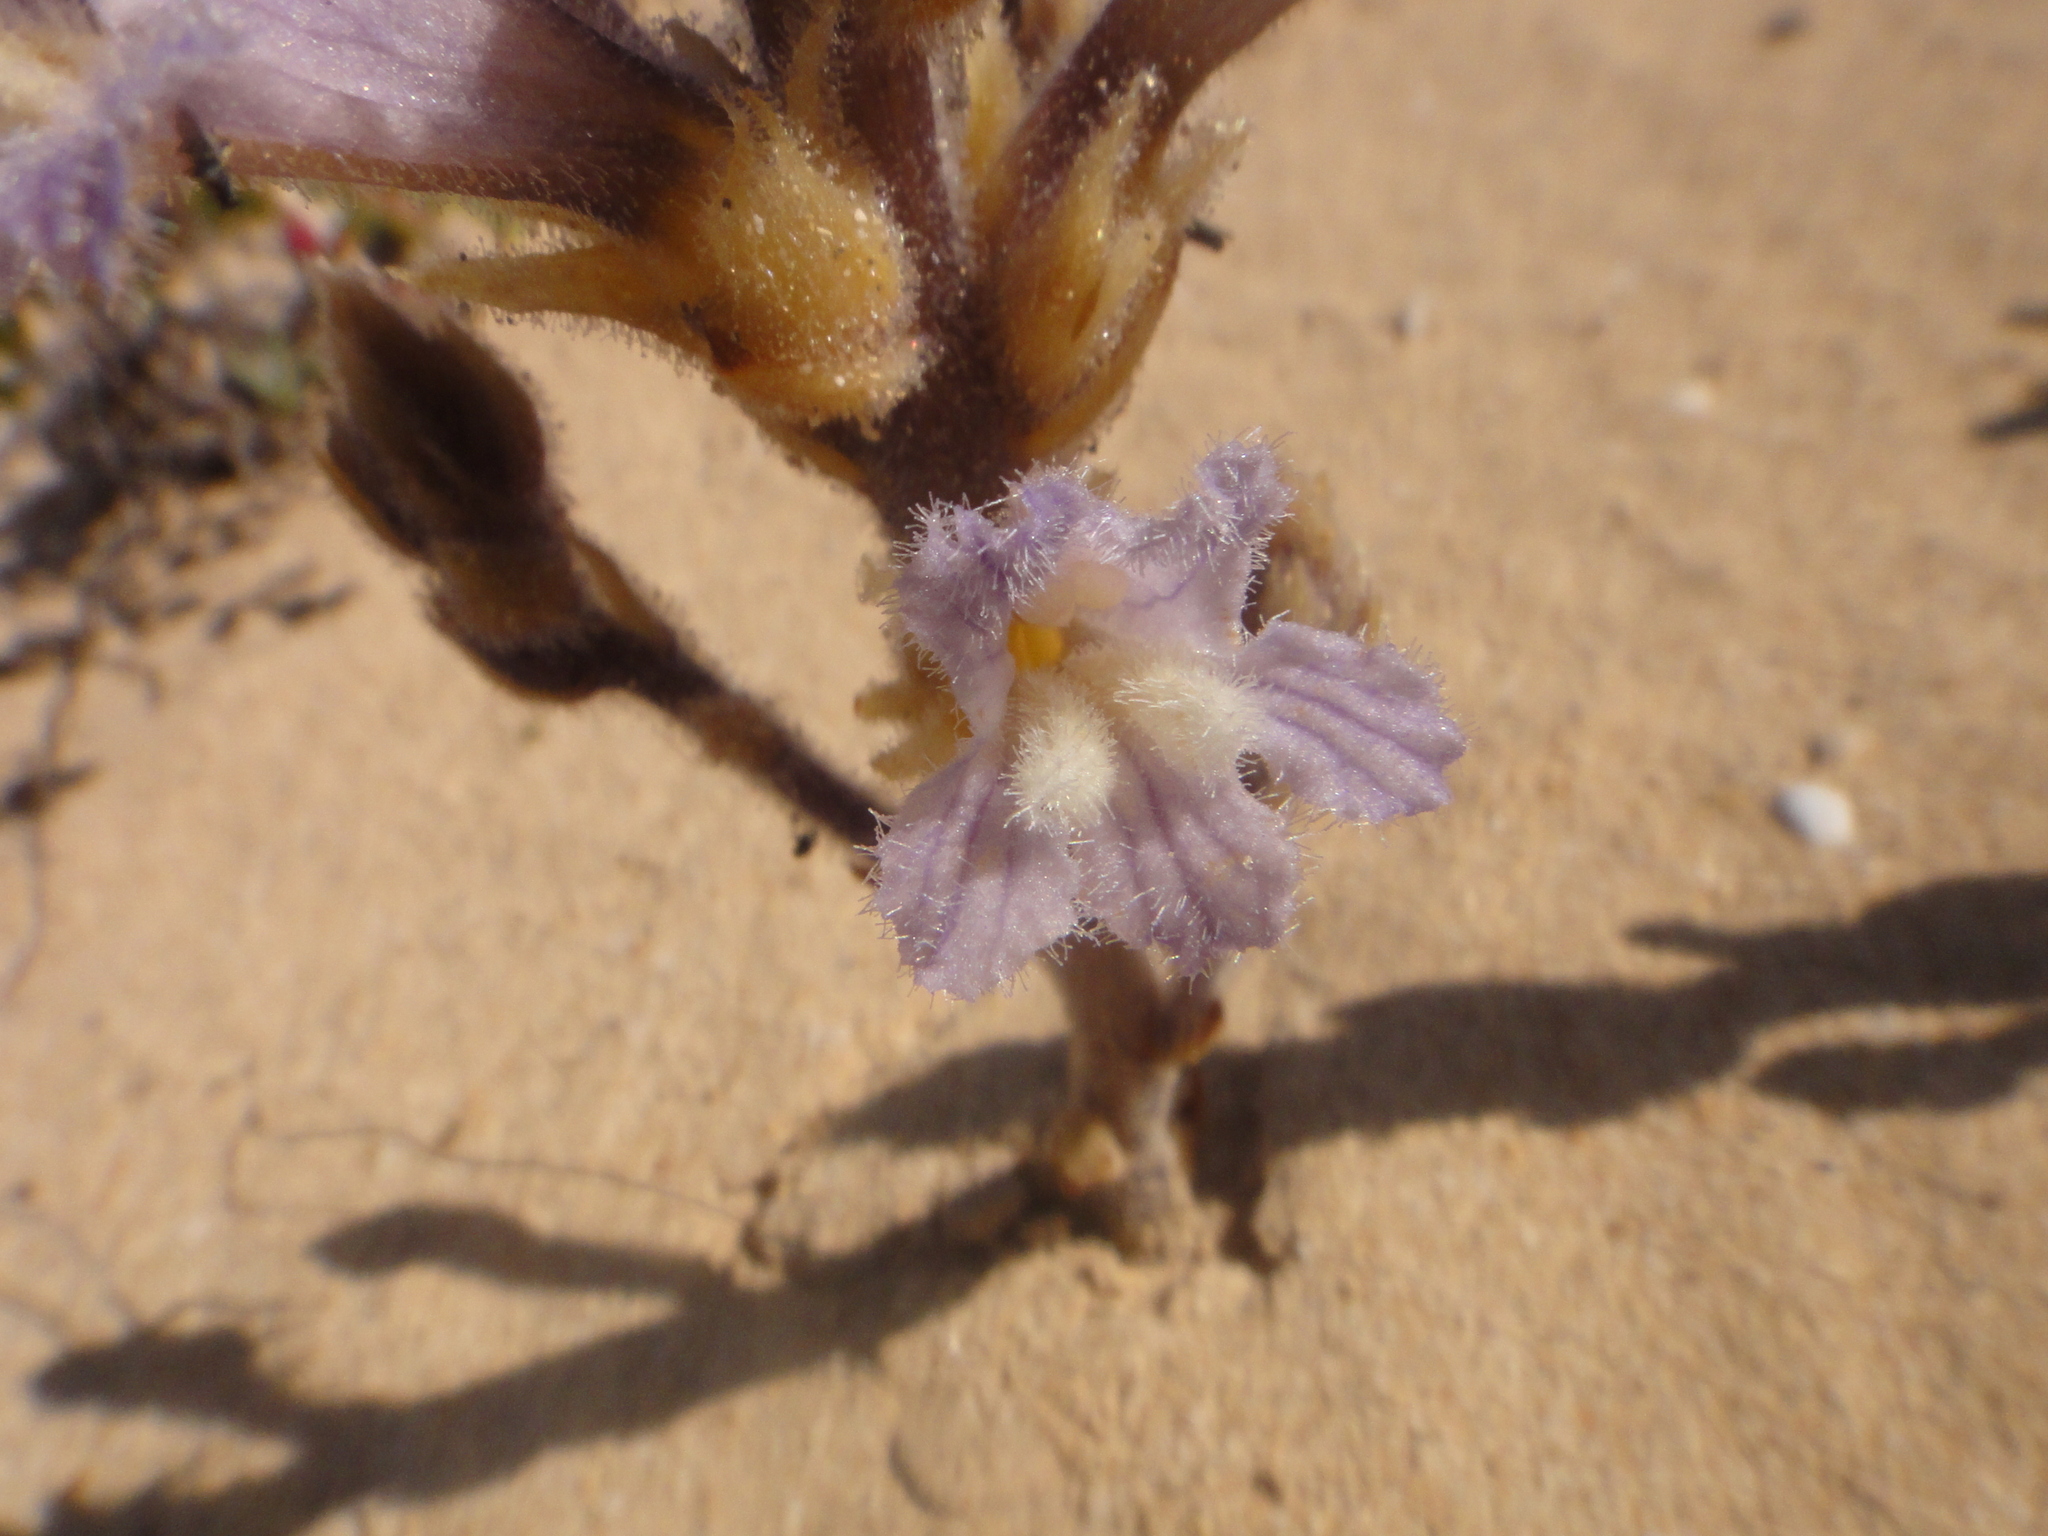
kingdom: Plantae
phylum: Tracheophyta
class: Magnoliopsida
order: Lamiales
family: Orobanchaceae
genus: Phelipanche
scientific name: Phelipanche gratiosa
